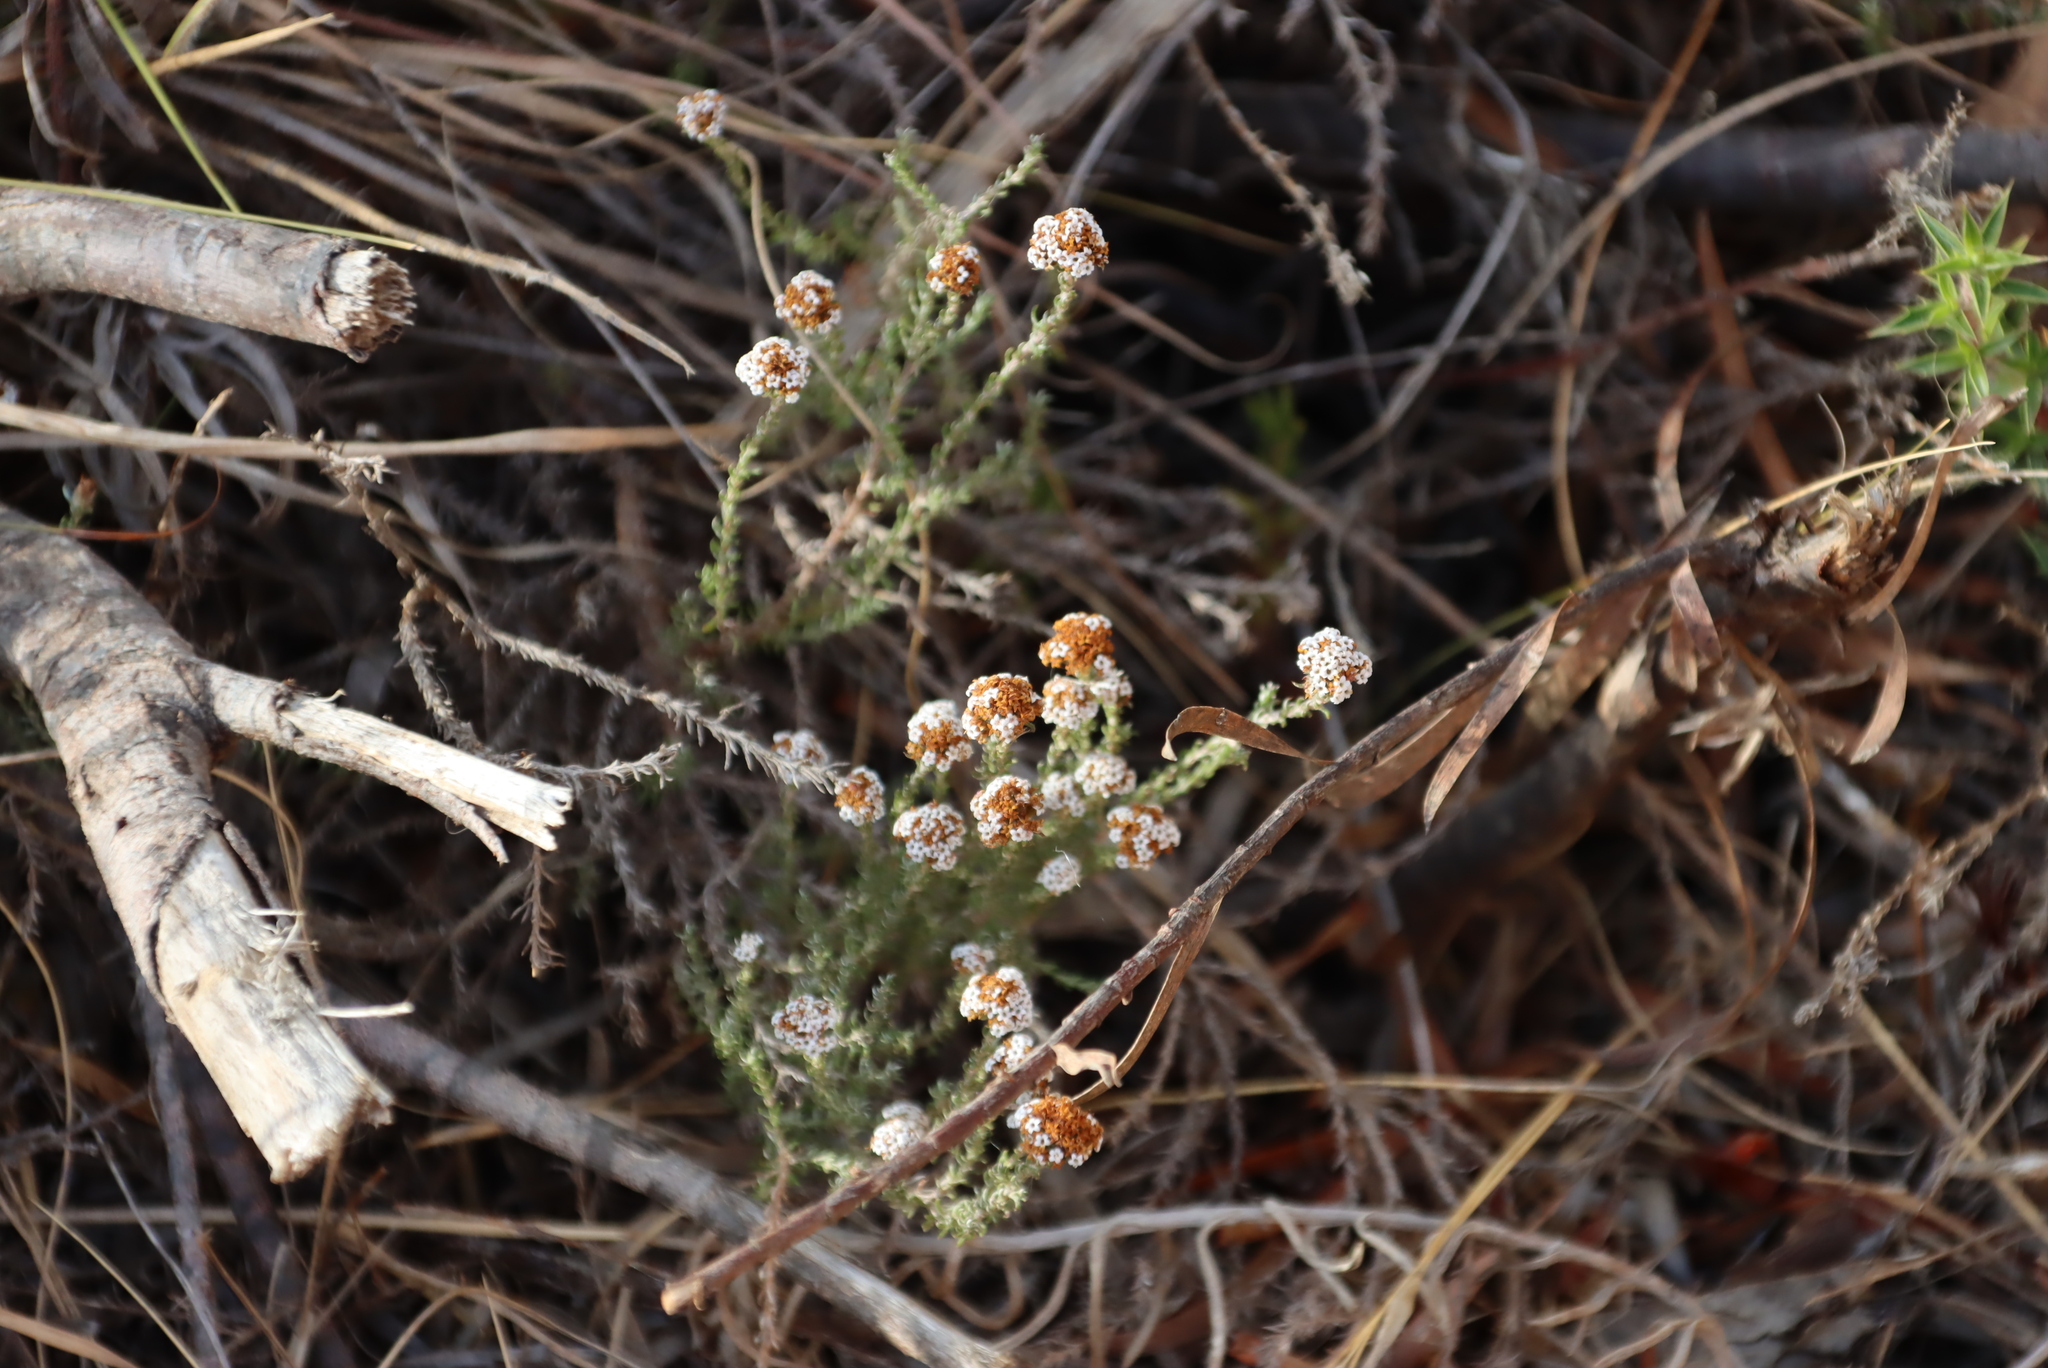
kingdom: Plantae
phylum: Tracheophyta
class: Magnoliopsida
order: Asterales
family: Asteraceae
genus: Stoebe
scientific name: Stoebe capitata
